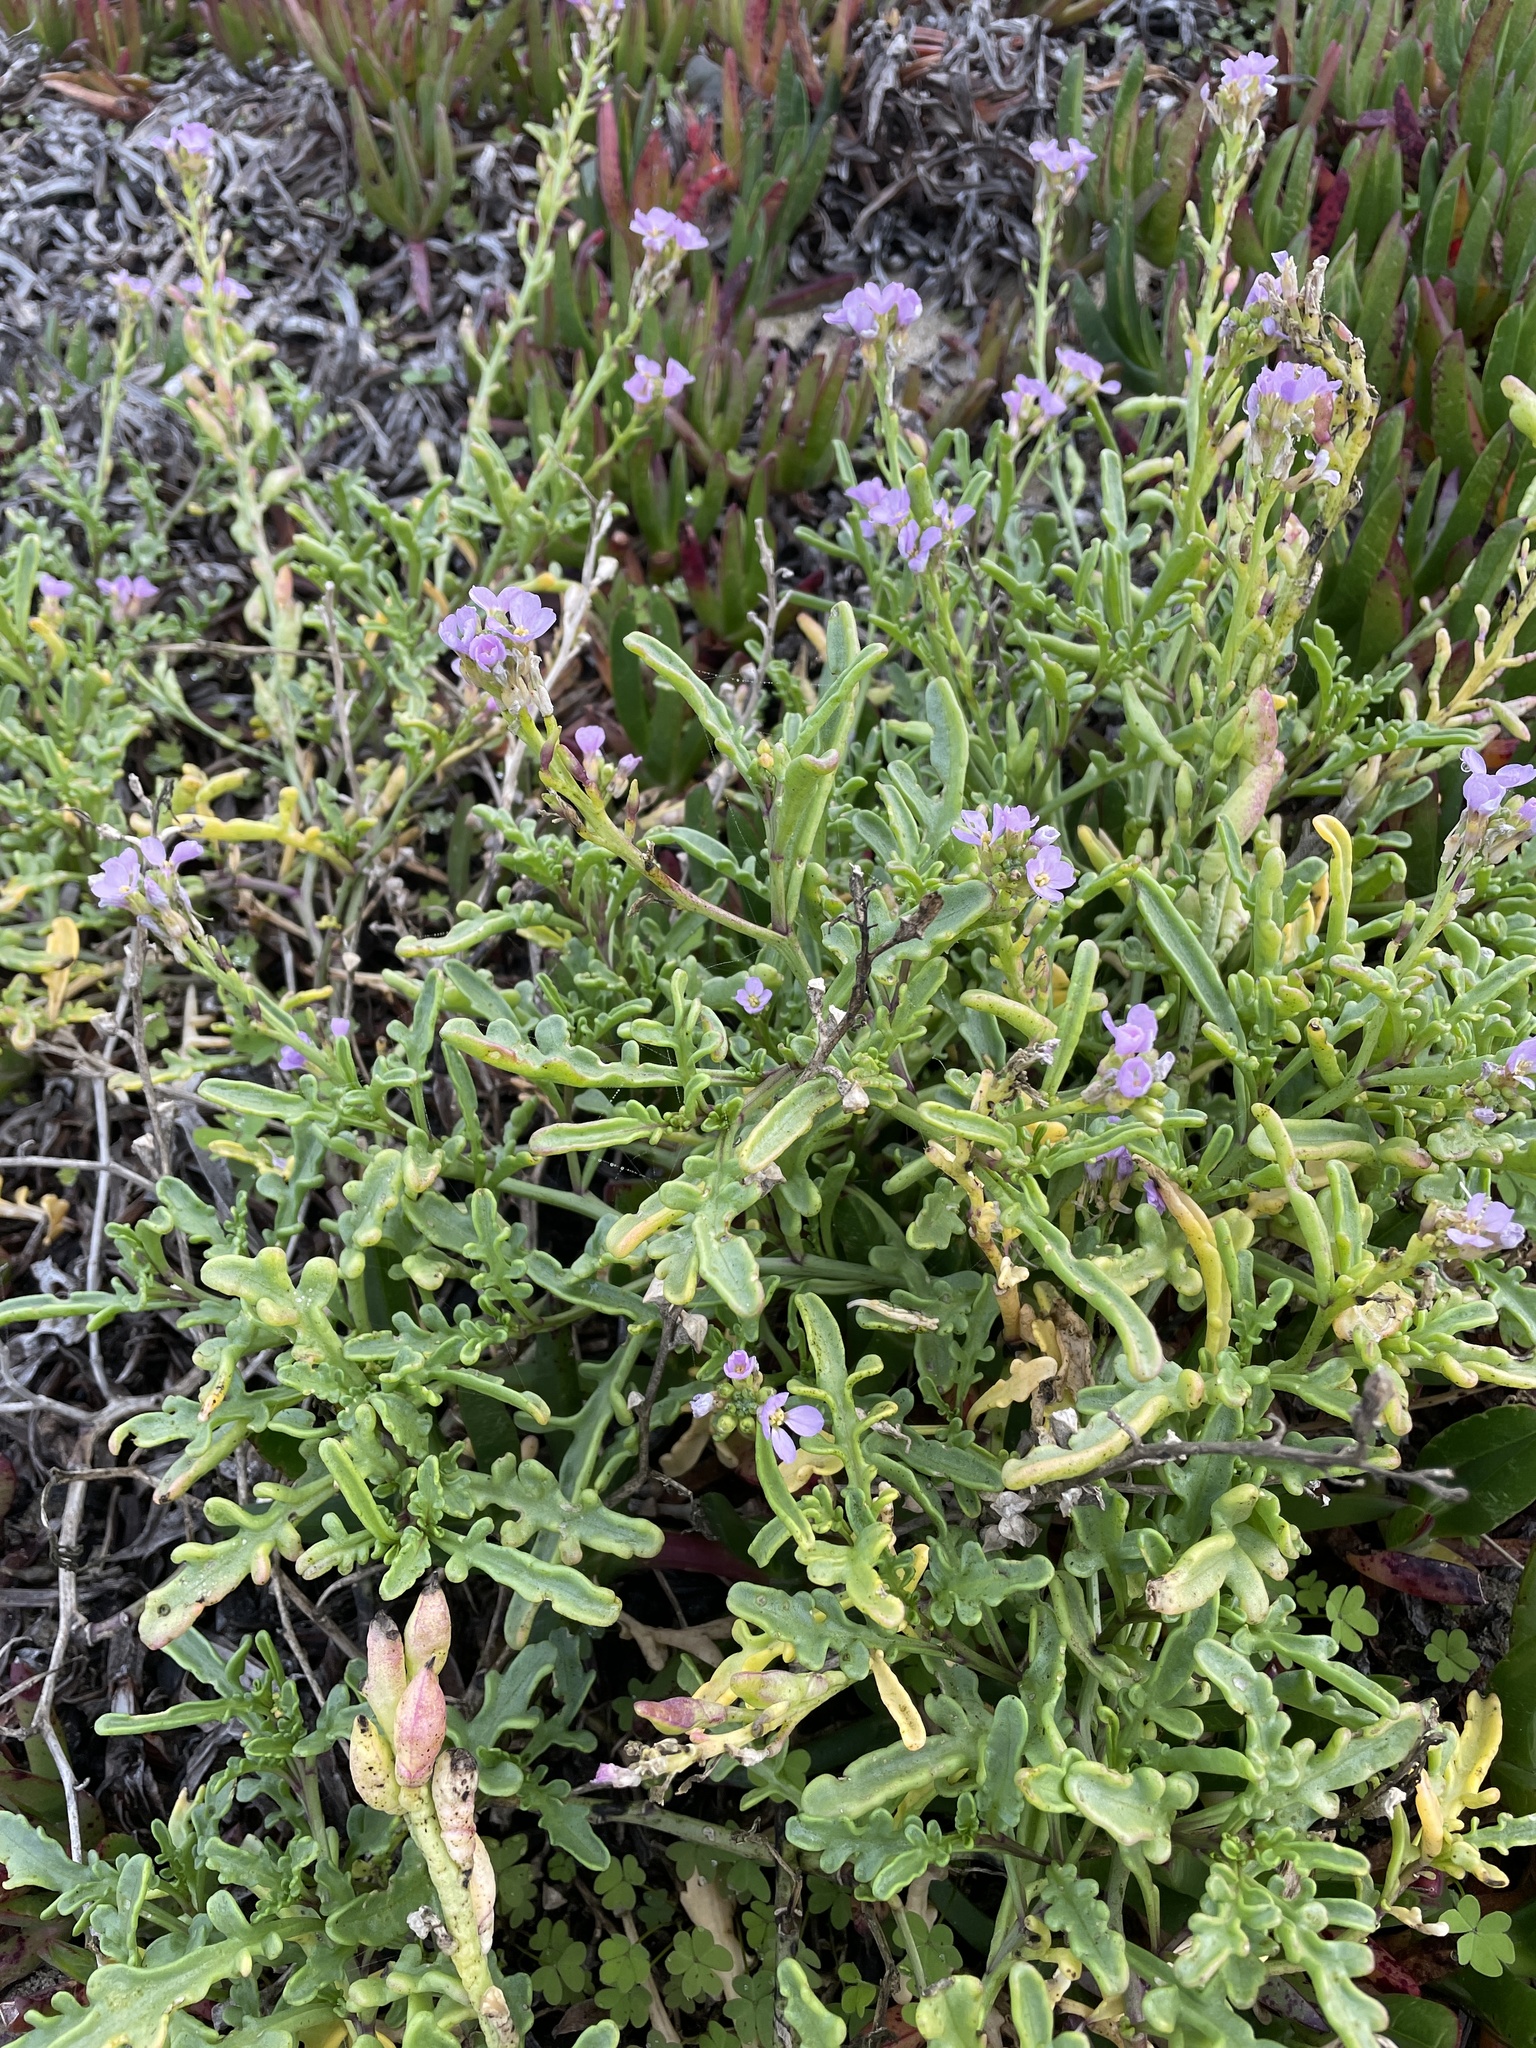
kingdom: Plantae
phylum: Tracheophyta
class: Magnoliopsida
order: Brassicales
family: Brassicaceae
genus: Cakile
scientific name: Cakile maritima
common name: Sea rocket
